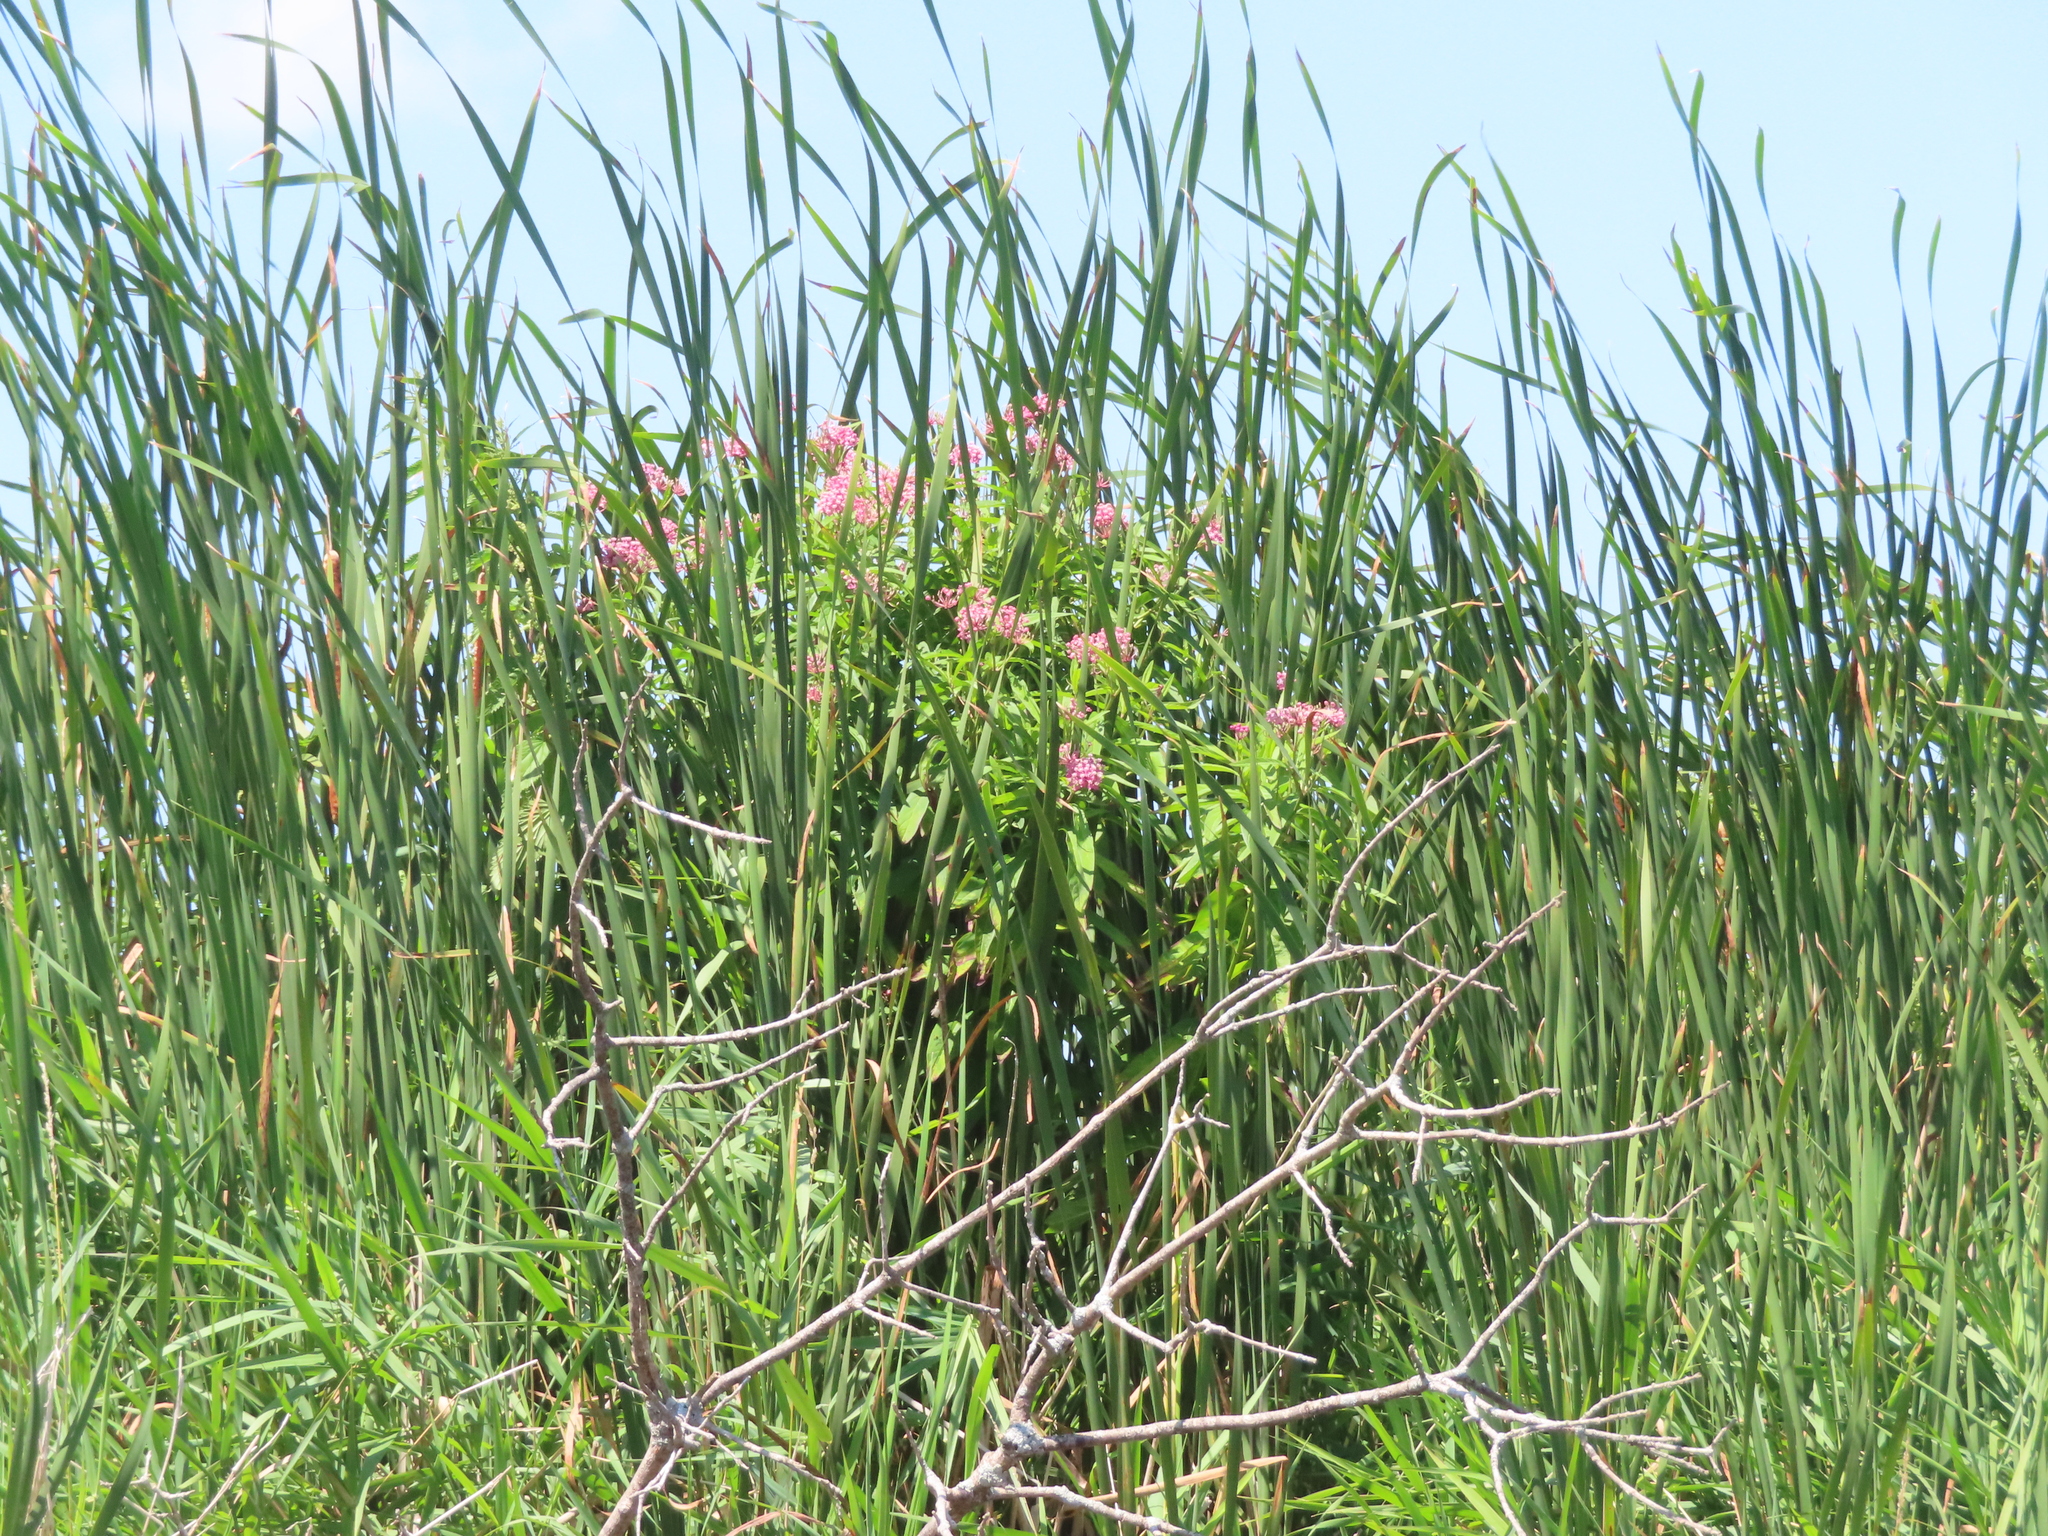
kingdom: Plantae
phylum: Tracheophyta
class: Magnoliopsida
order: Gentianales
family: Apocynaceae
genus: Asclepias
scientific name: Asclepias incarnata
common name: Swamp milkweed
